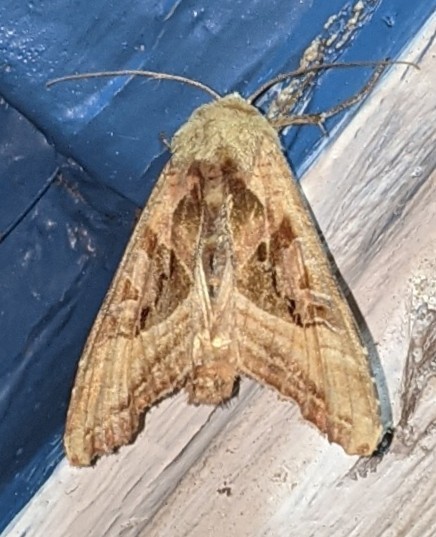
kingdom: Animalia
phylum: Arthropoda
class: Insecta
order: Lepidoptera
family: Noctuidae
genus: Phlogophora
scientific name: Phlogophora iris
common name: Olive angle shades
